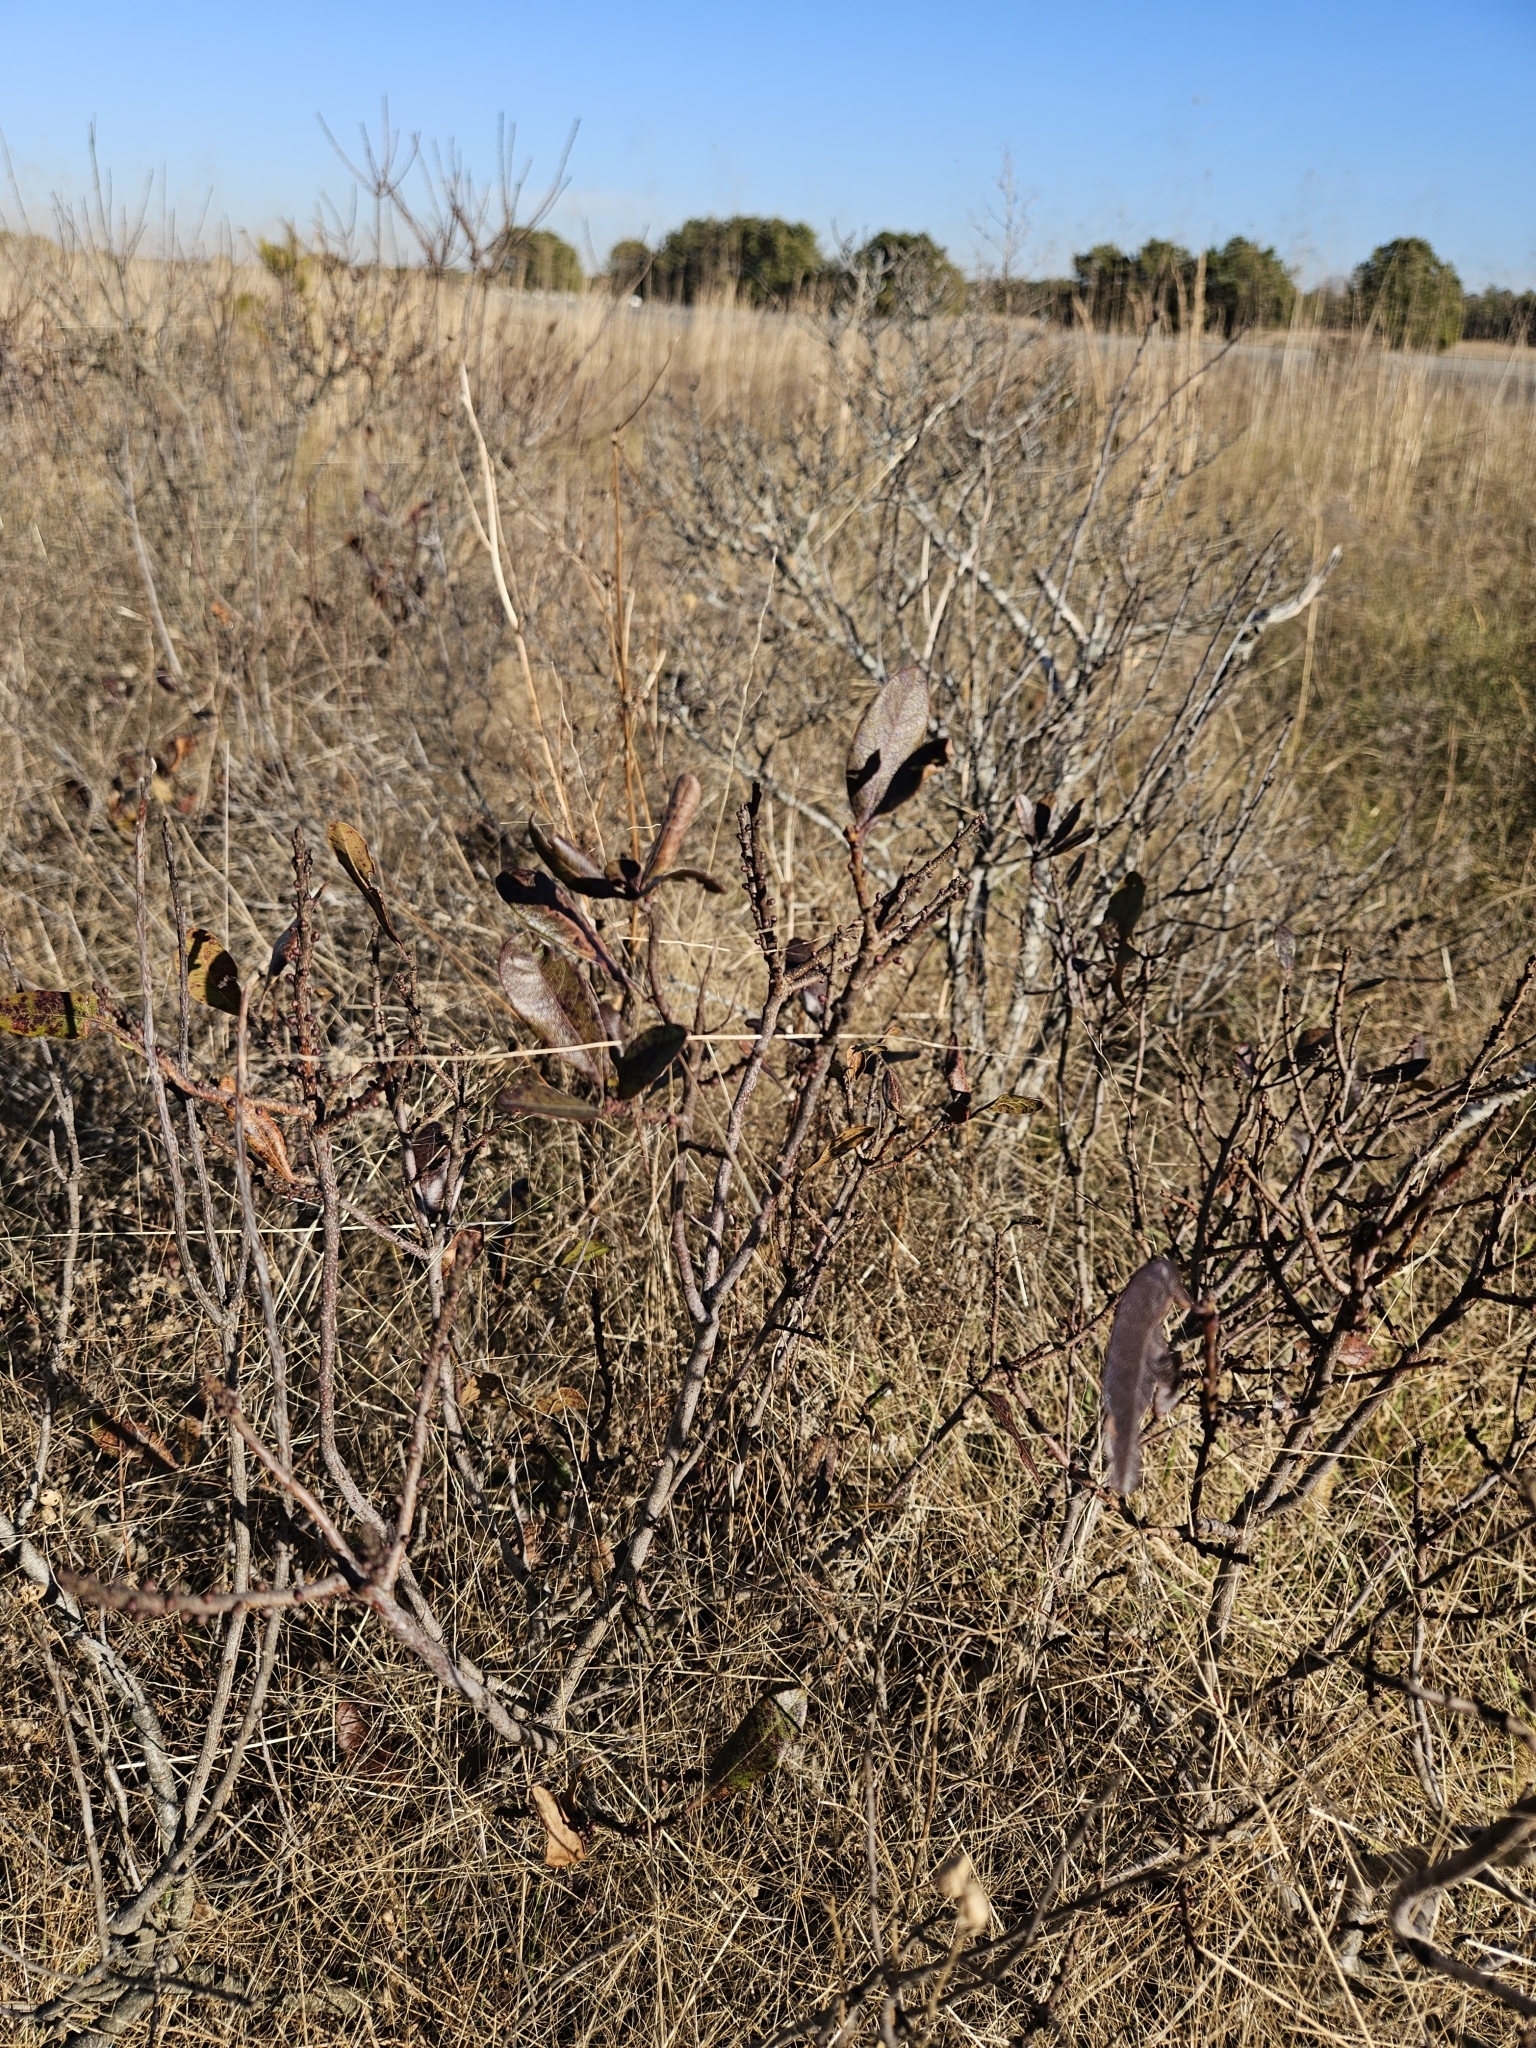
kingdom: Plantae
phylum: Tracheophyta
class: Magnoliopsida
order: Fagales
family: Myricaceae
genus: Morella
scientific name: Morella pensylvanica
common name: Northern bayberry
